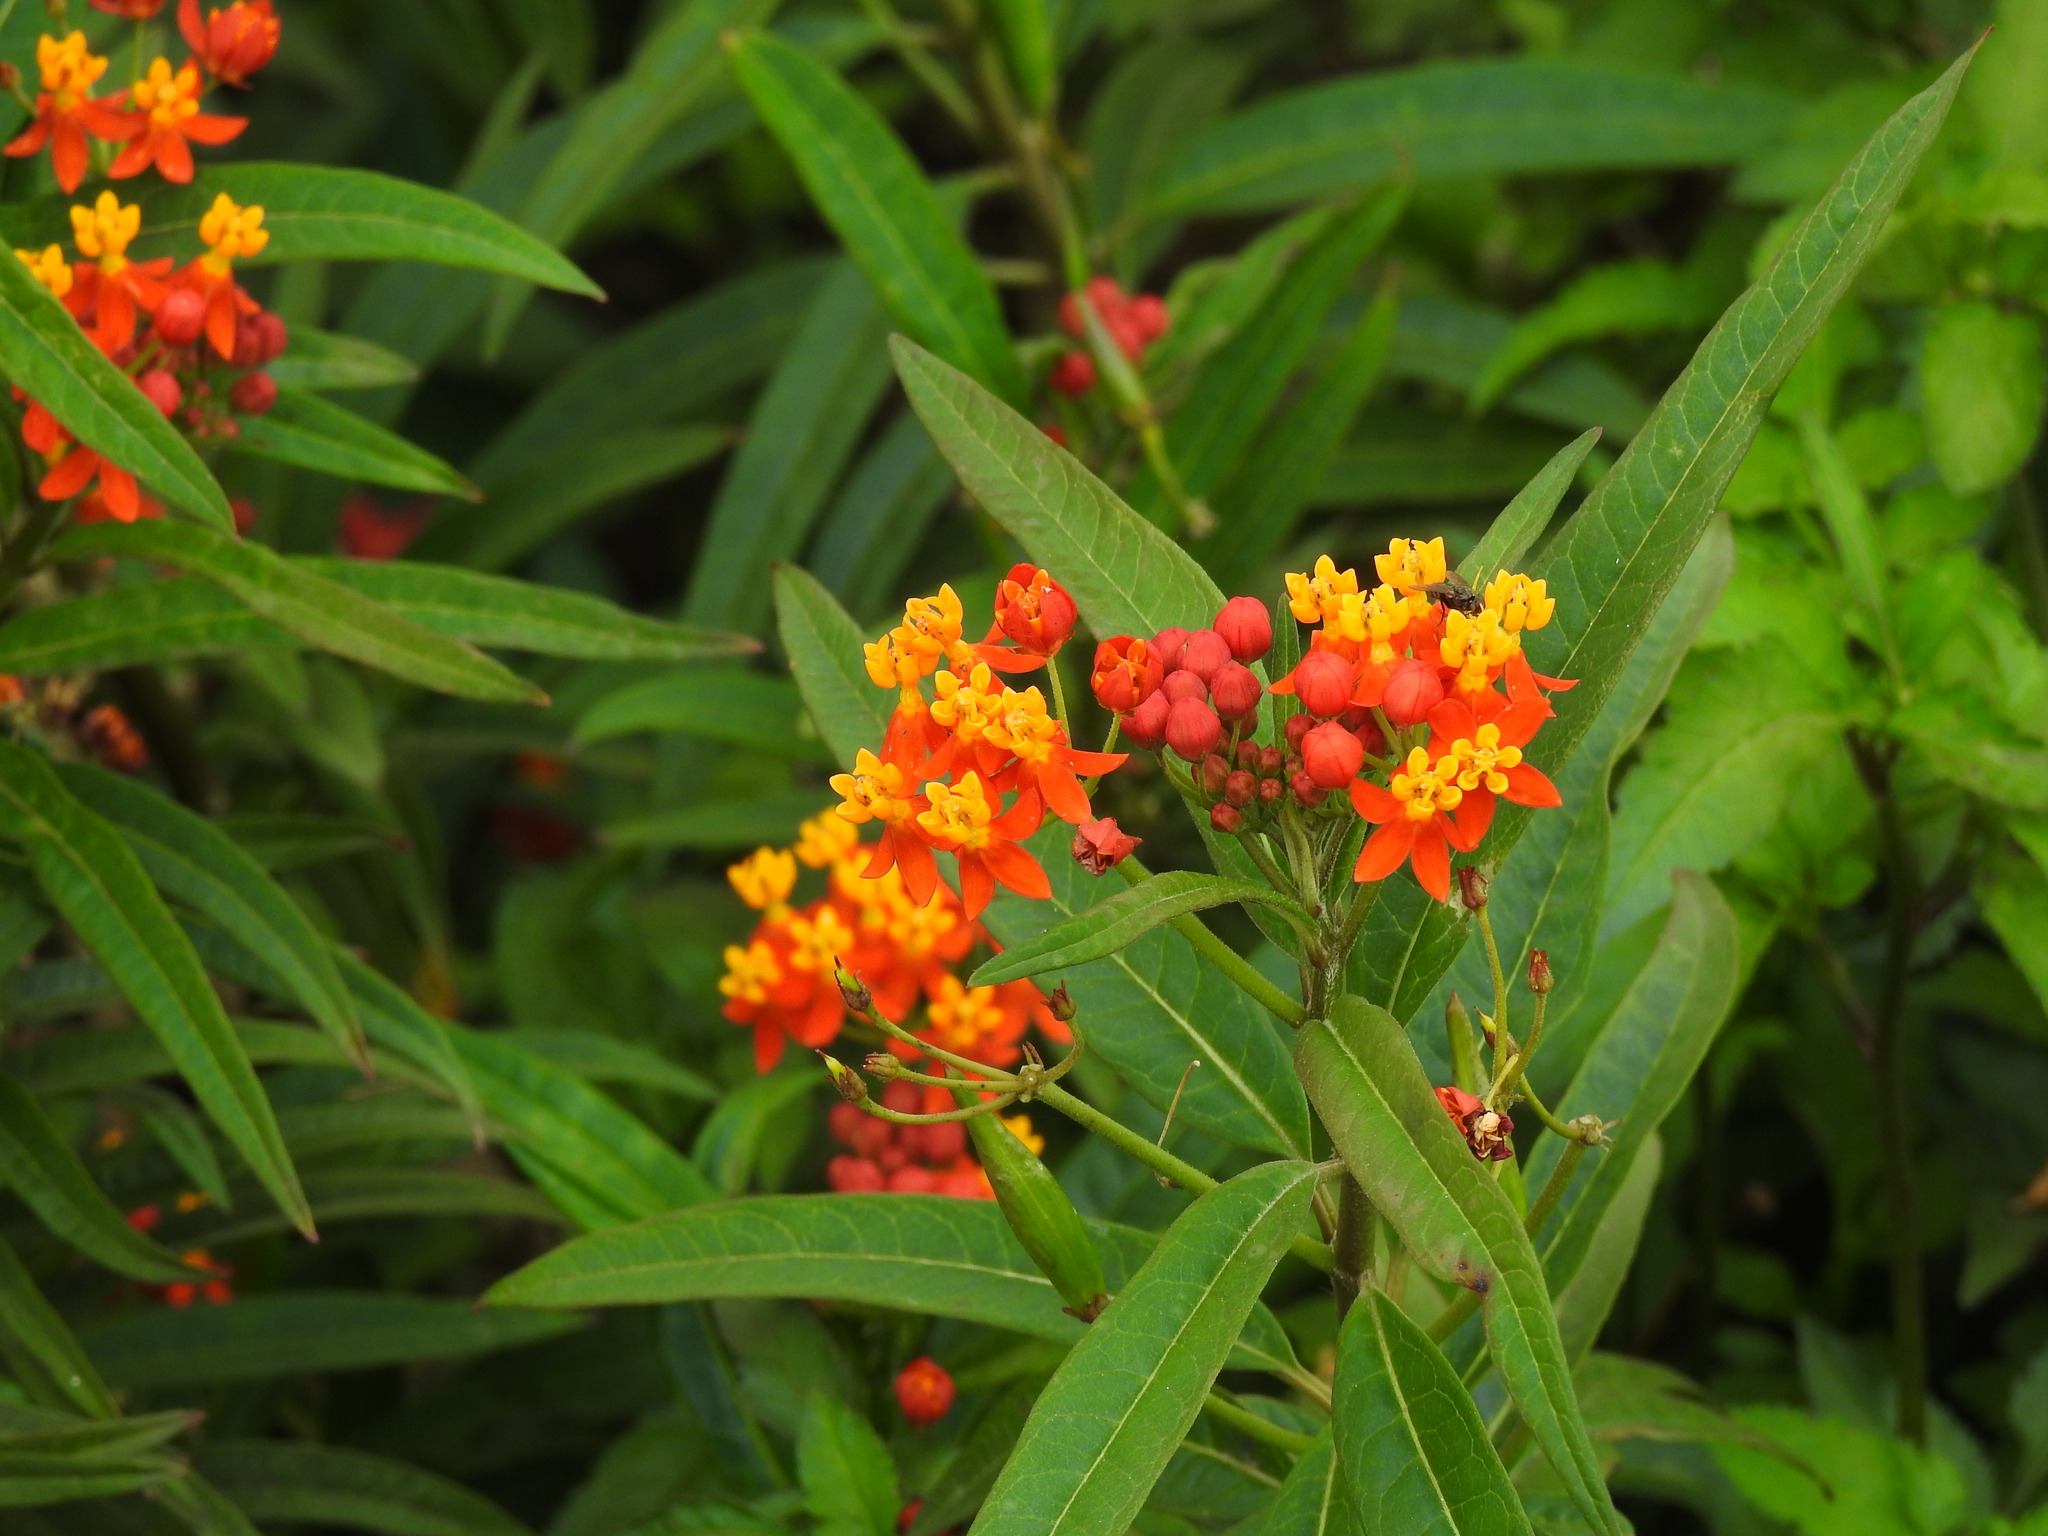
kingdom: Plantae
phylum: Tracheophyta
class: Magnoliopsida
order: Gentianales
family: Apocynaceae
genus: Asclepias
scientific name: Asclepias curassavica
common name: Bloodflower
